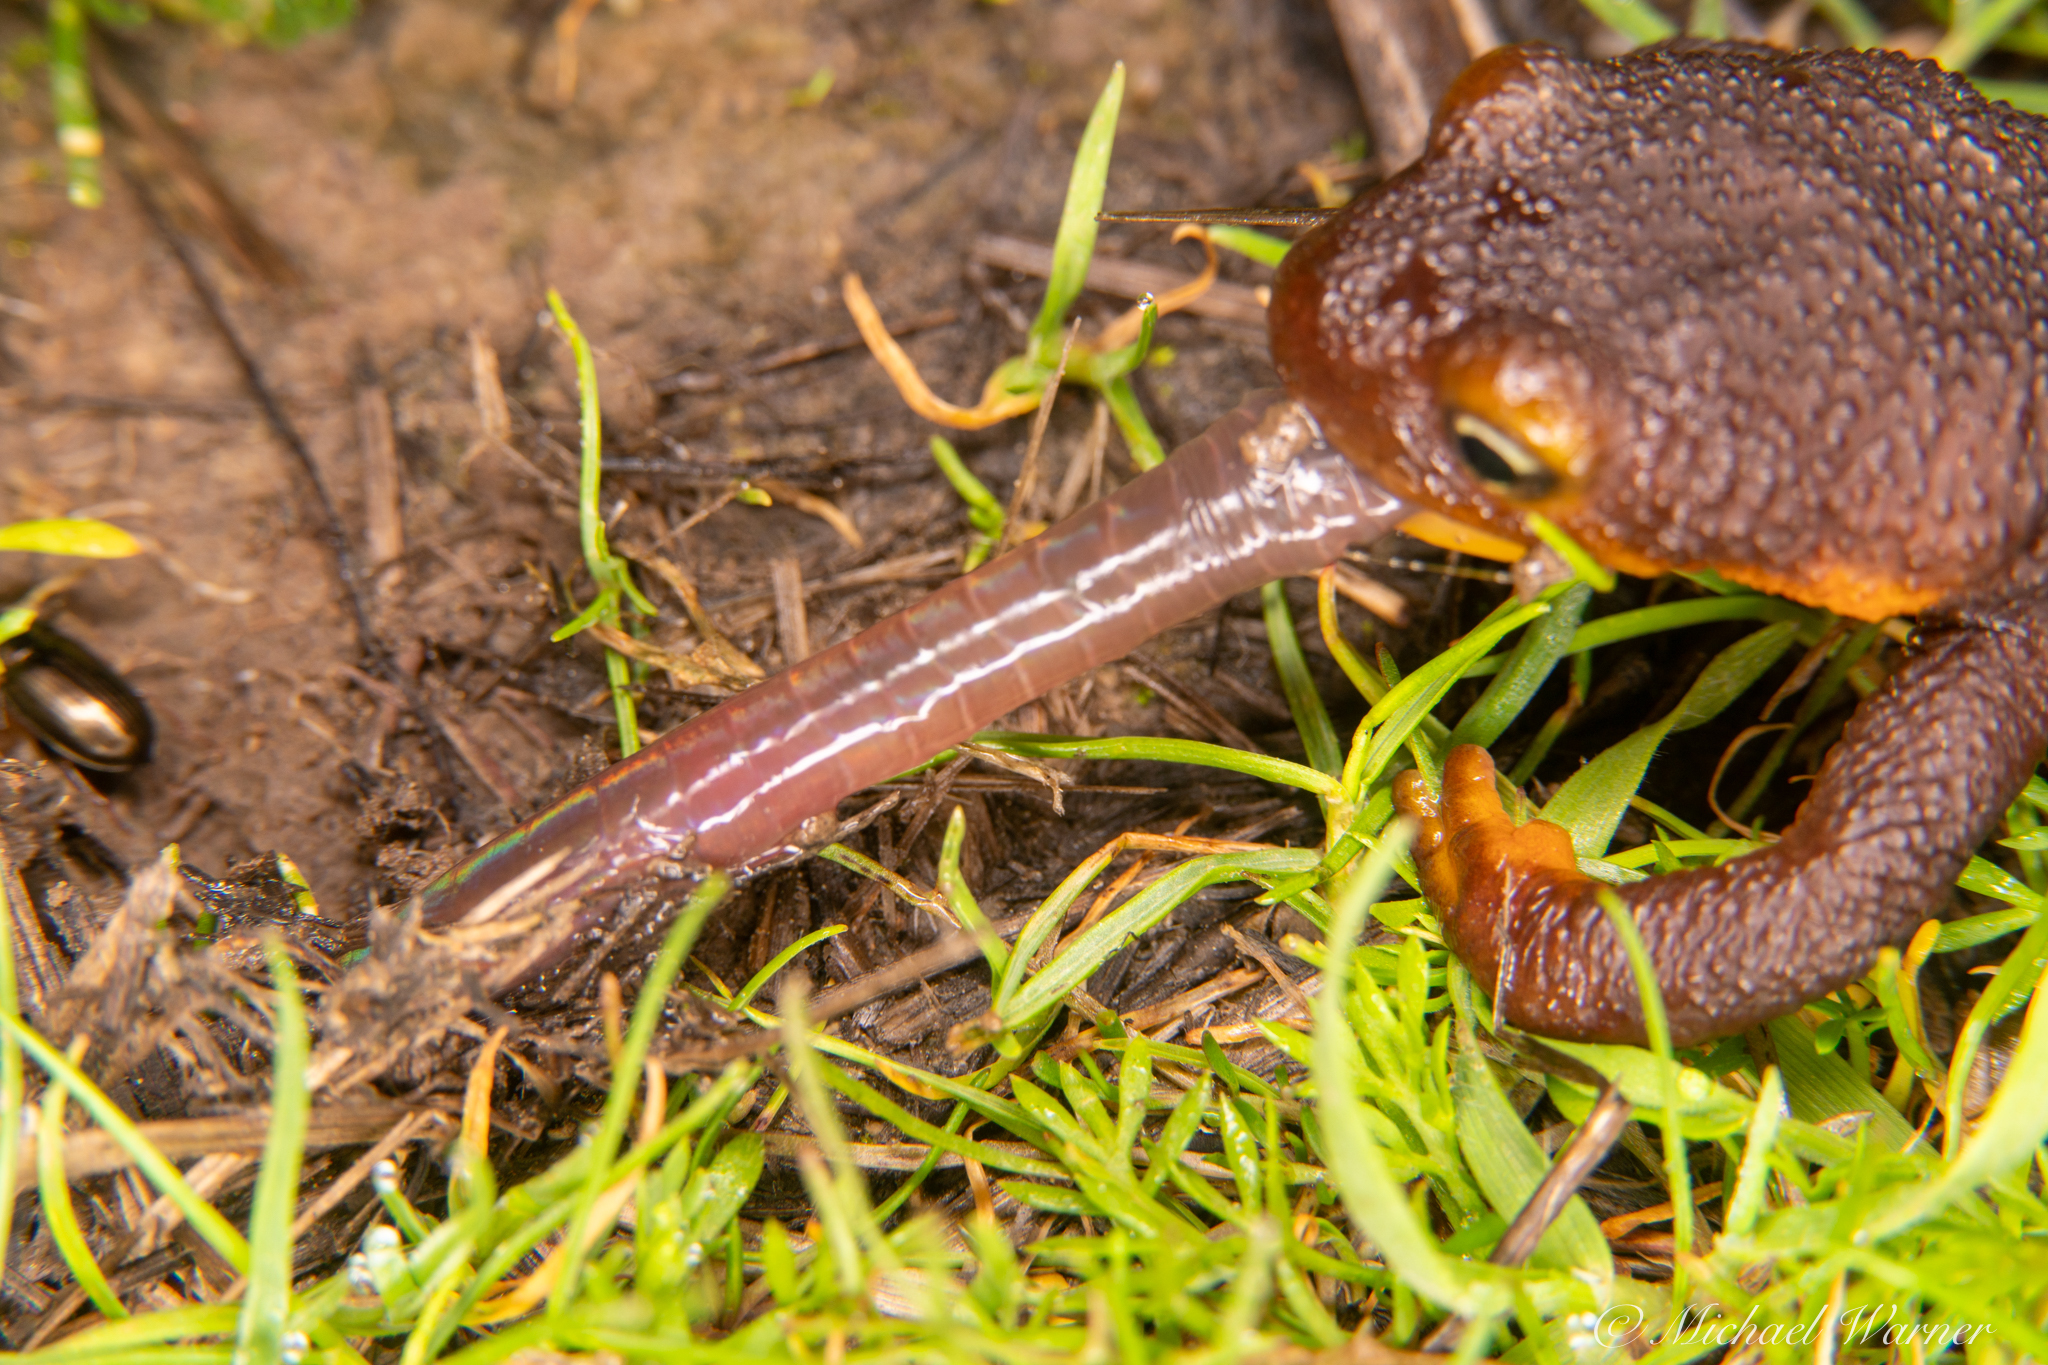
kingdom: Animalia
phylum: Chordata
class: Amphibia
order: Caudata
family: Salamandridae
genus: Taricha
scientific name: Taricha torosa
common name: California newt
